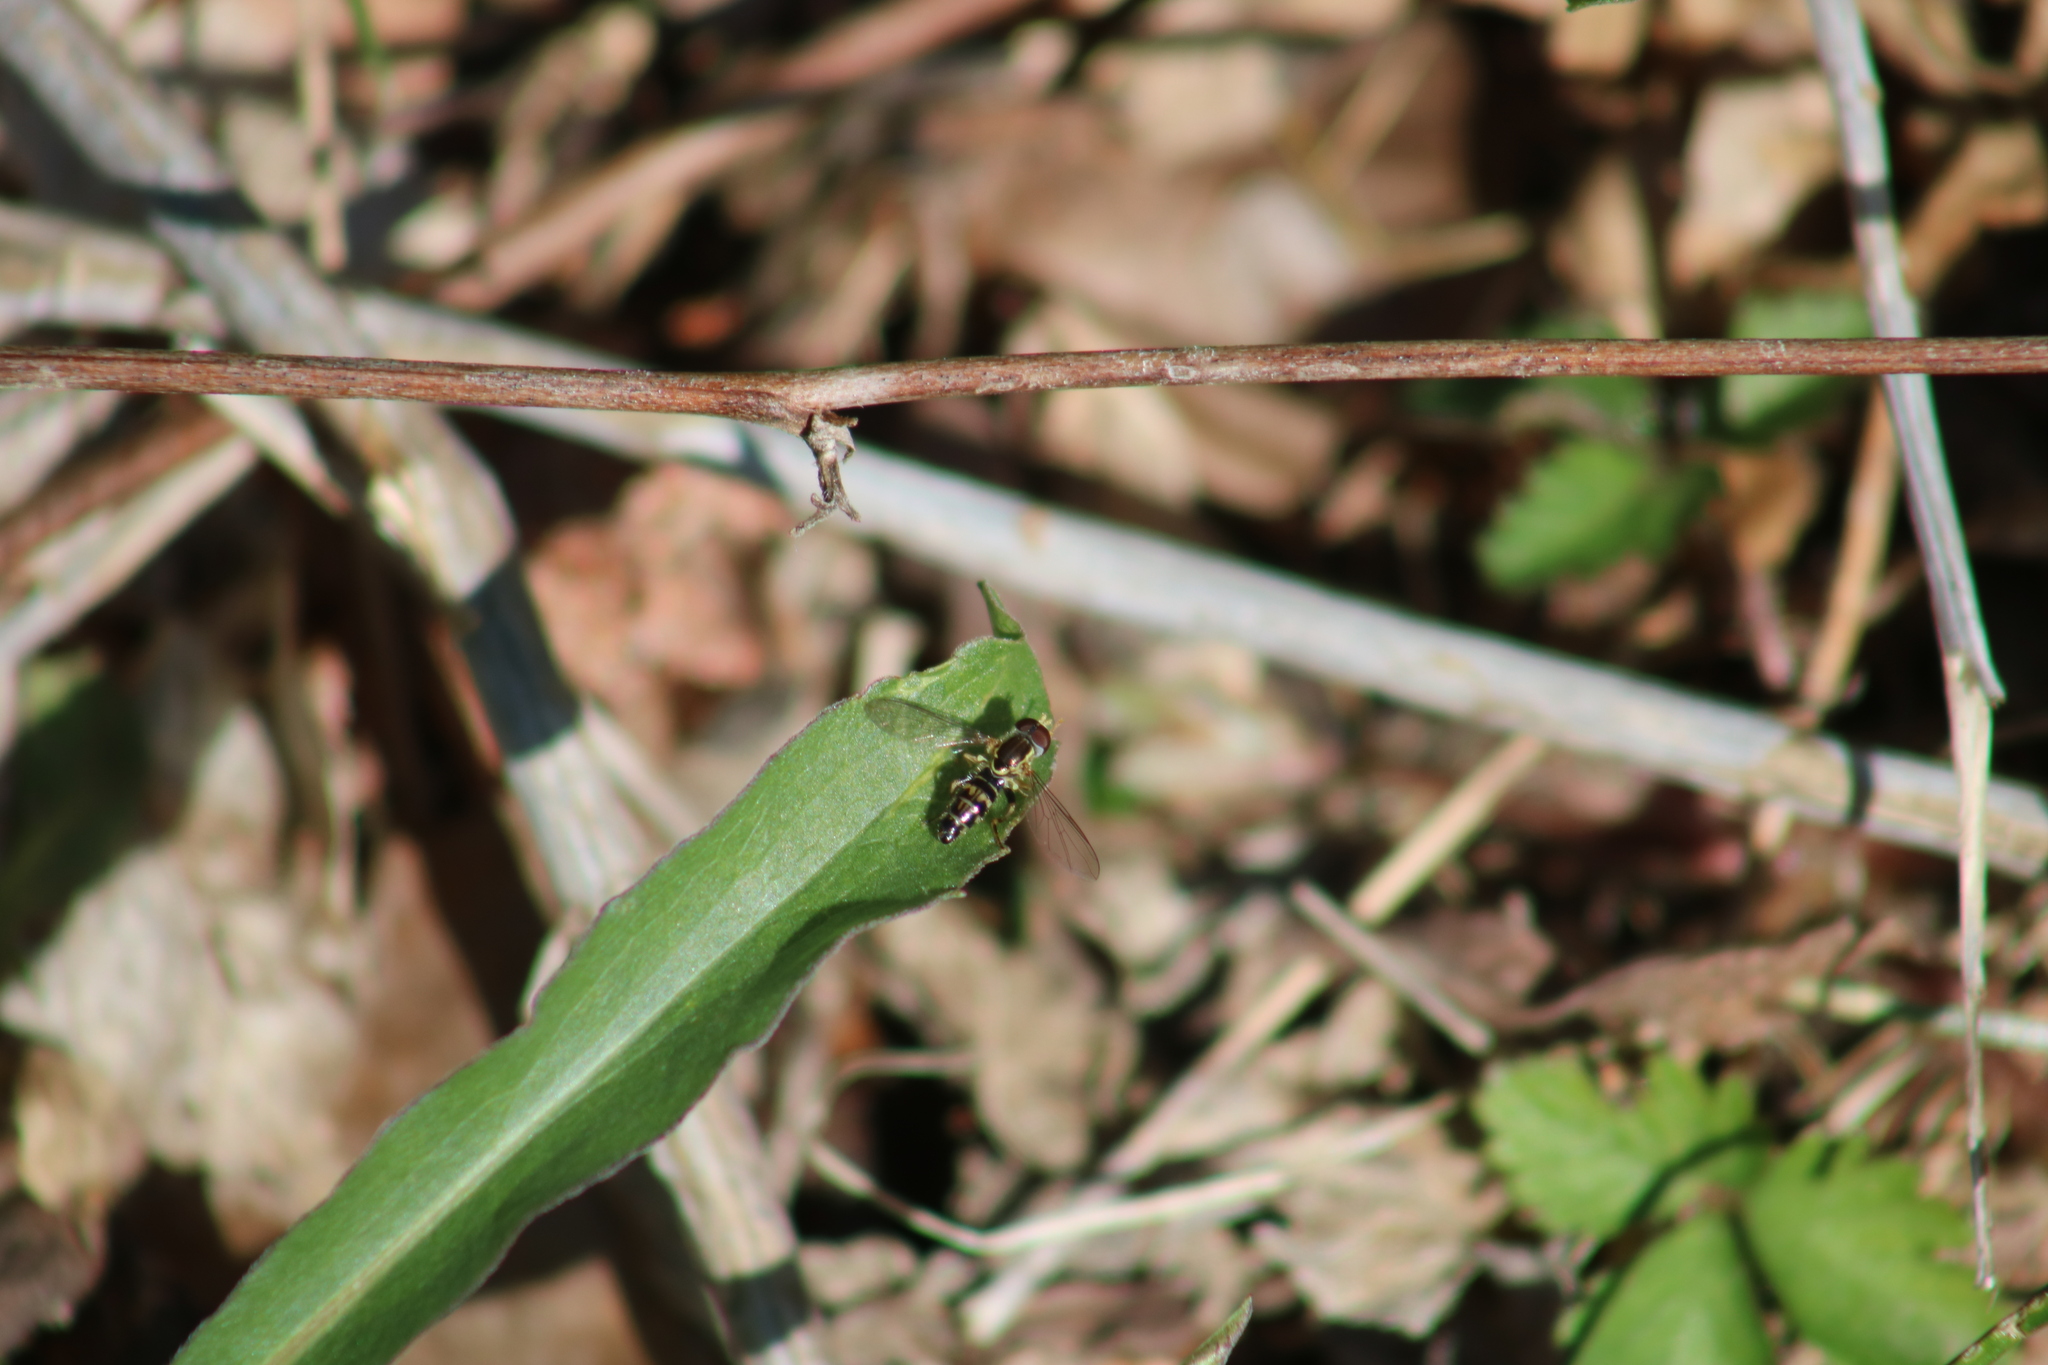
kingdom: Animalia
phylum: Arthropoda
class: Insecta
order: Diptera
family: Syrphidae
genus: Toxomerus
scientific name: Toxomerus geminatus
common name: Eastern calligrapher
